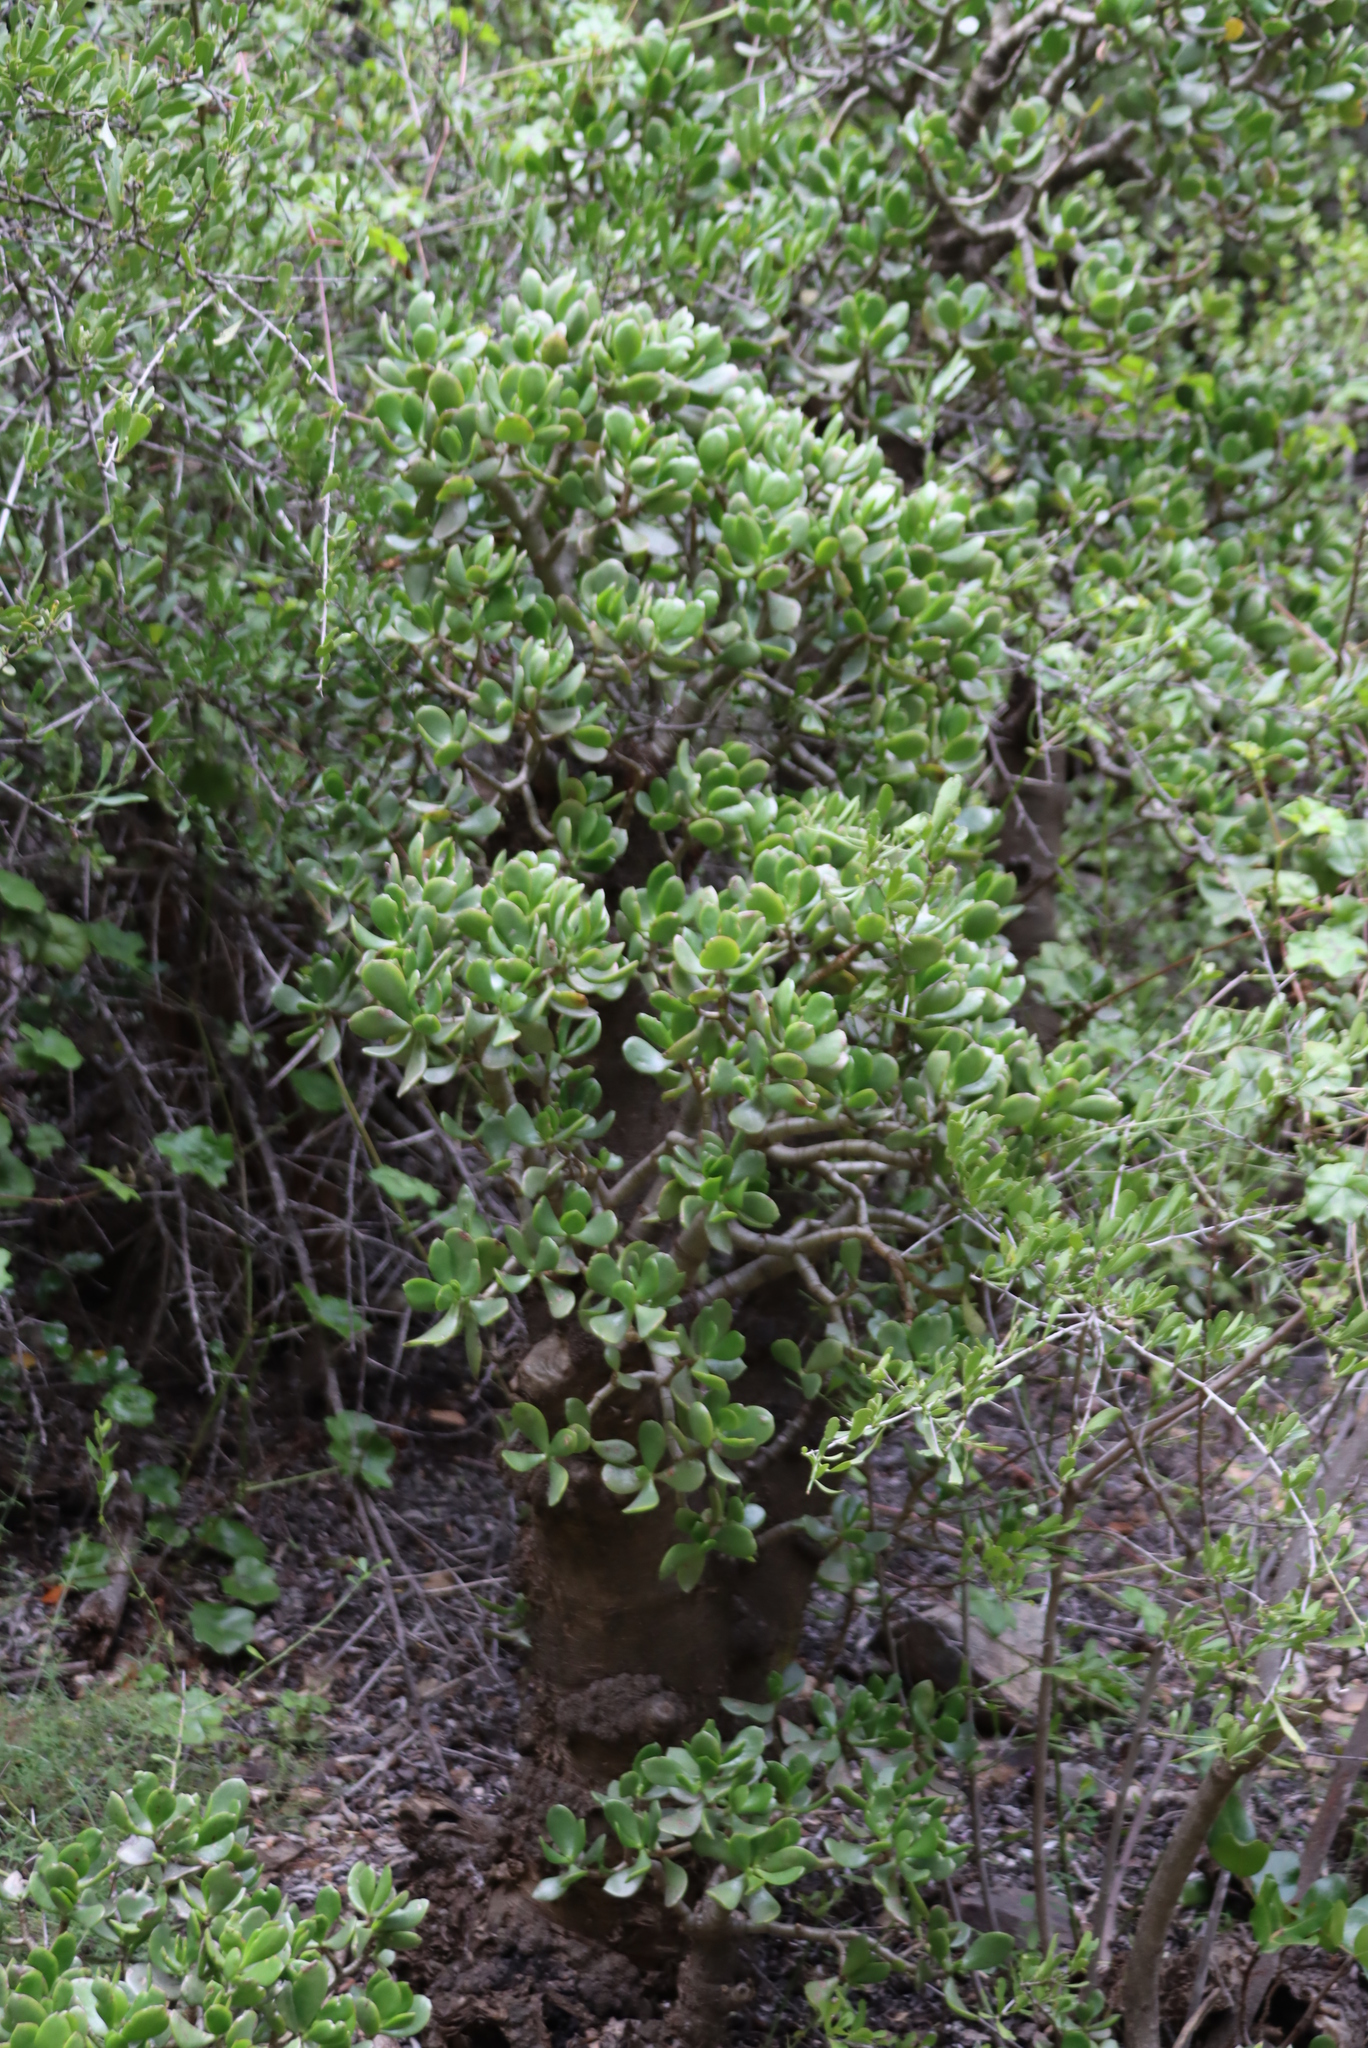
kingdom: Plantae
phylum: Tracheophyta
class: Magnoliopsida
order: Saxifragales
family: Crassulaceae
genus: Crassula
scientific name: Crassula ovata
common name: Jade plant
